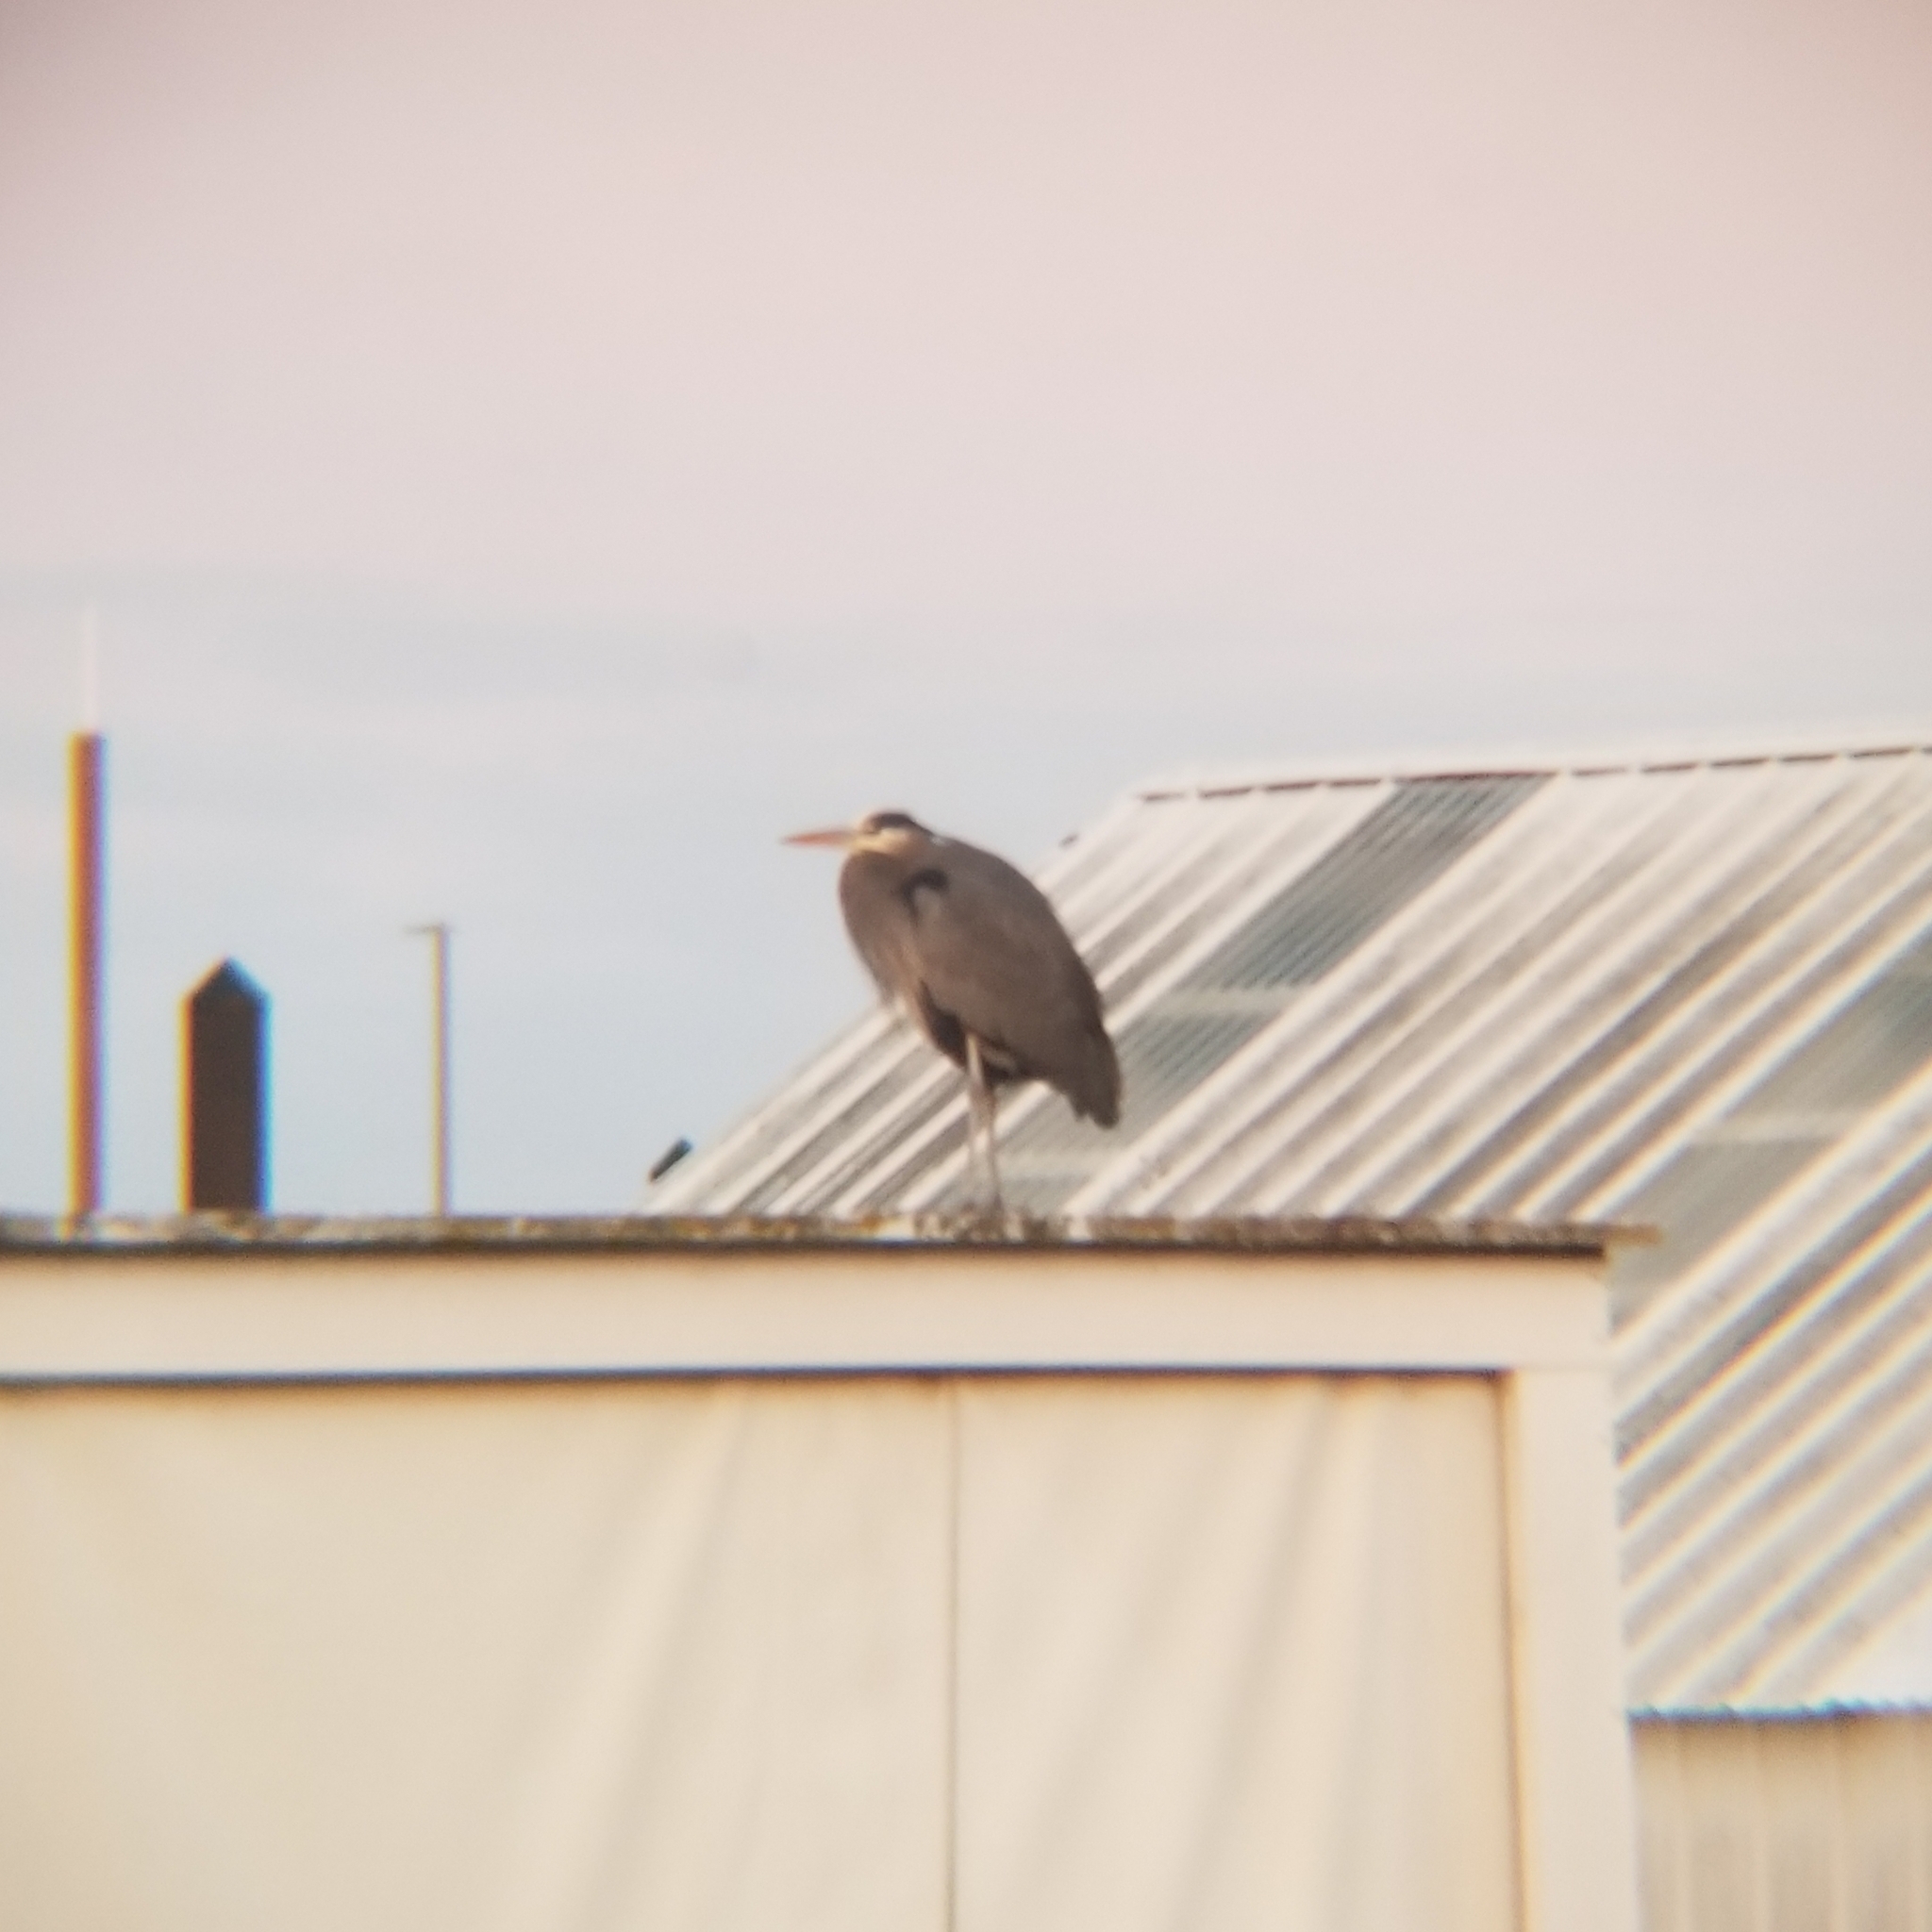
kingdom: Animalia
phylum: Chordata
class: Aves
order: Pelecaniformes
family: Ardeidae
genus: Ardea
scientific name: Ardea herodias
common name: Great blue heron
